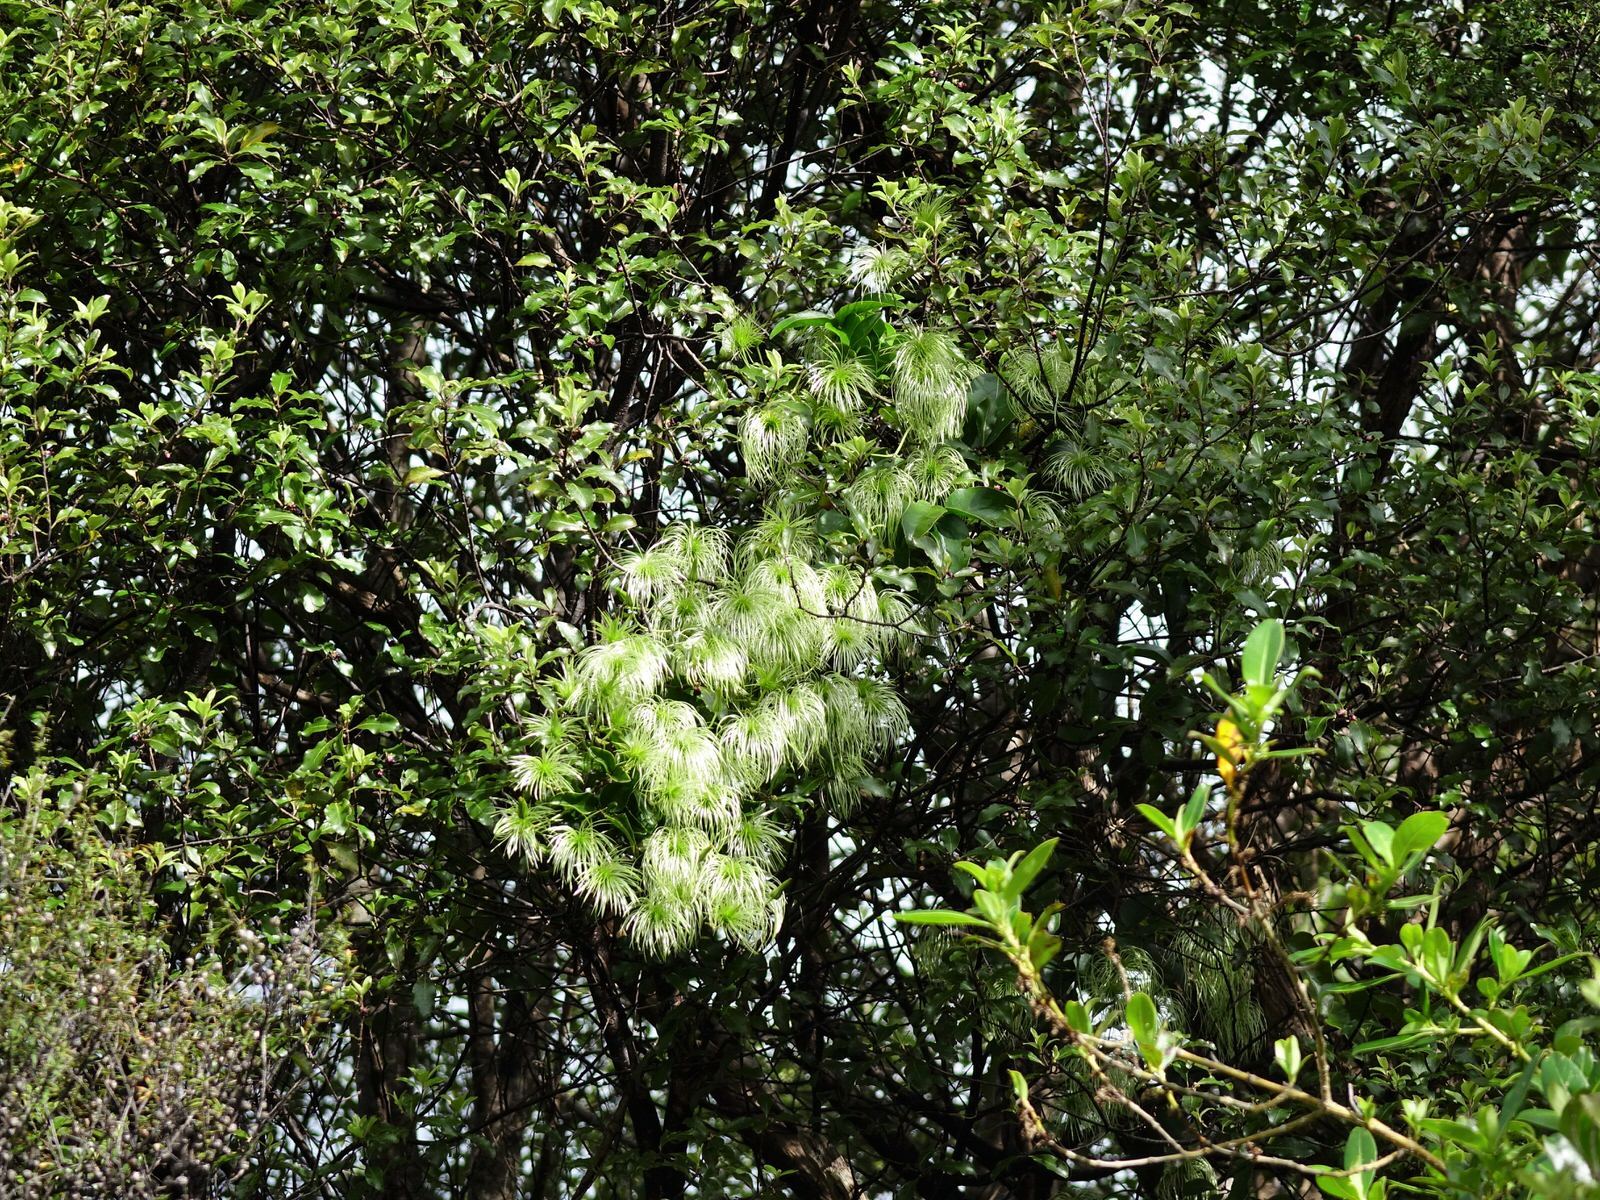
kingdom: Plantae
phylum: Tracheophyta
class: Magnoliopsida
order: Ranunculales
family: Ranunculaceae
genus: Clematis
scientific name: Clematis paniculata
